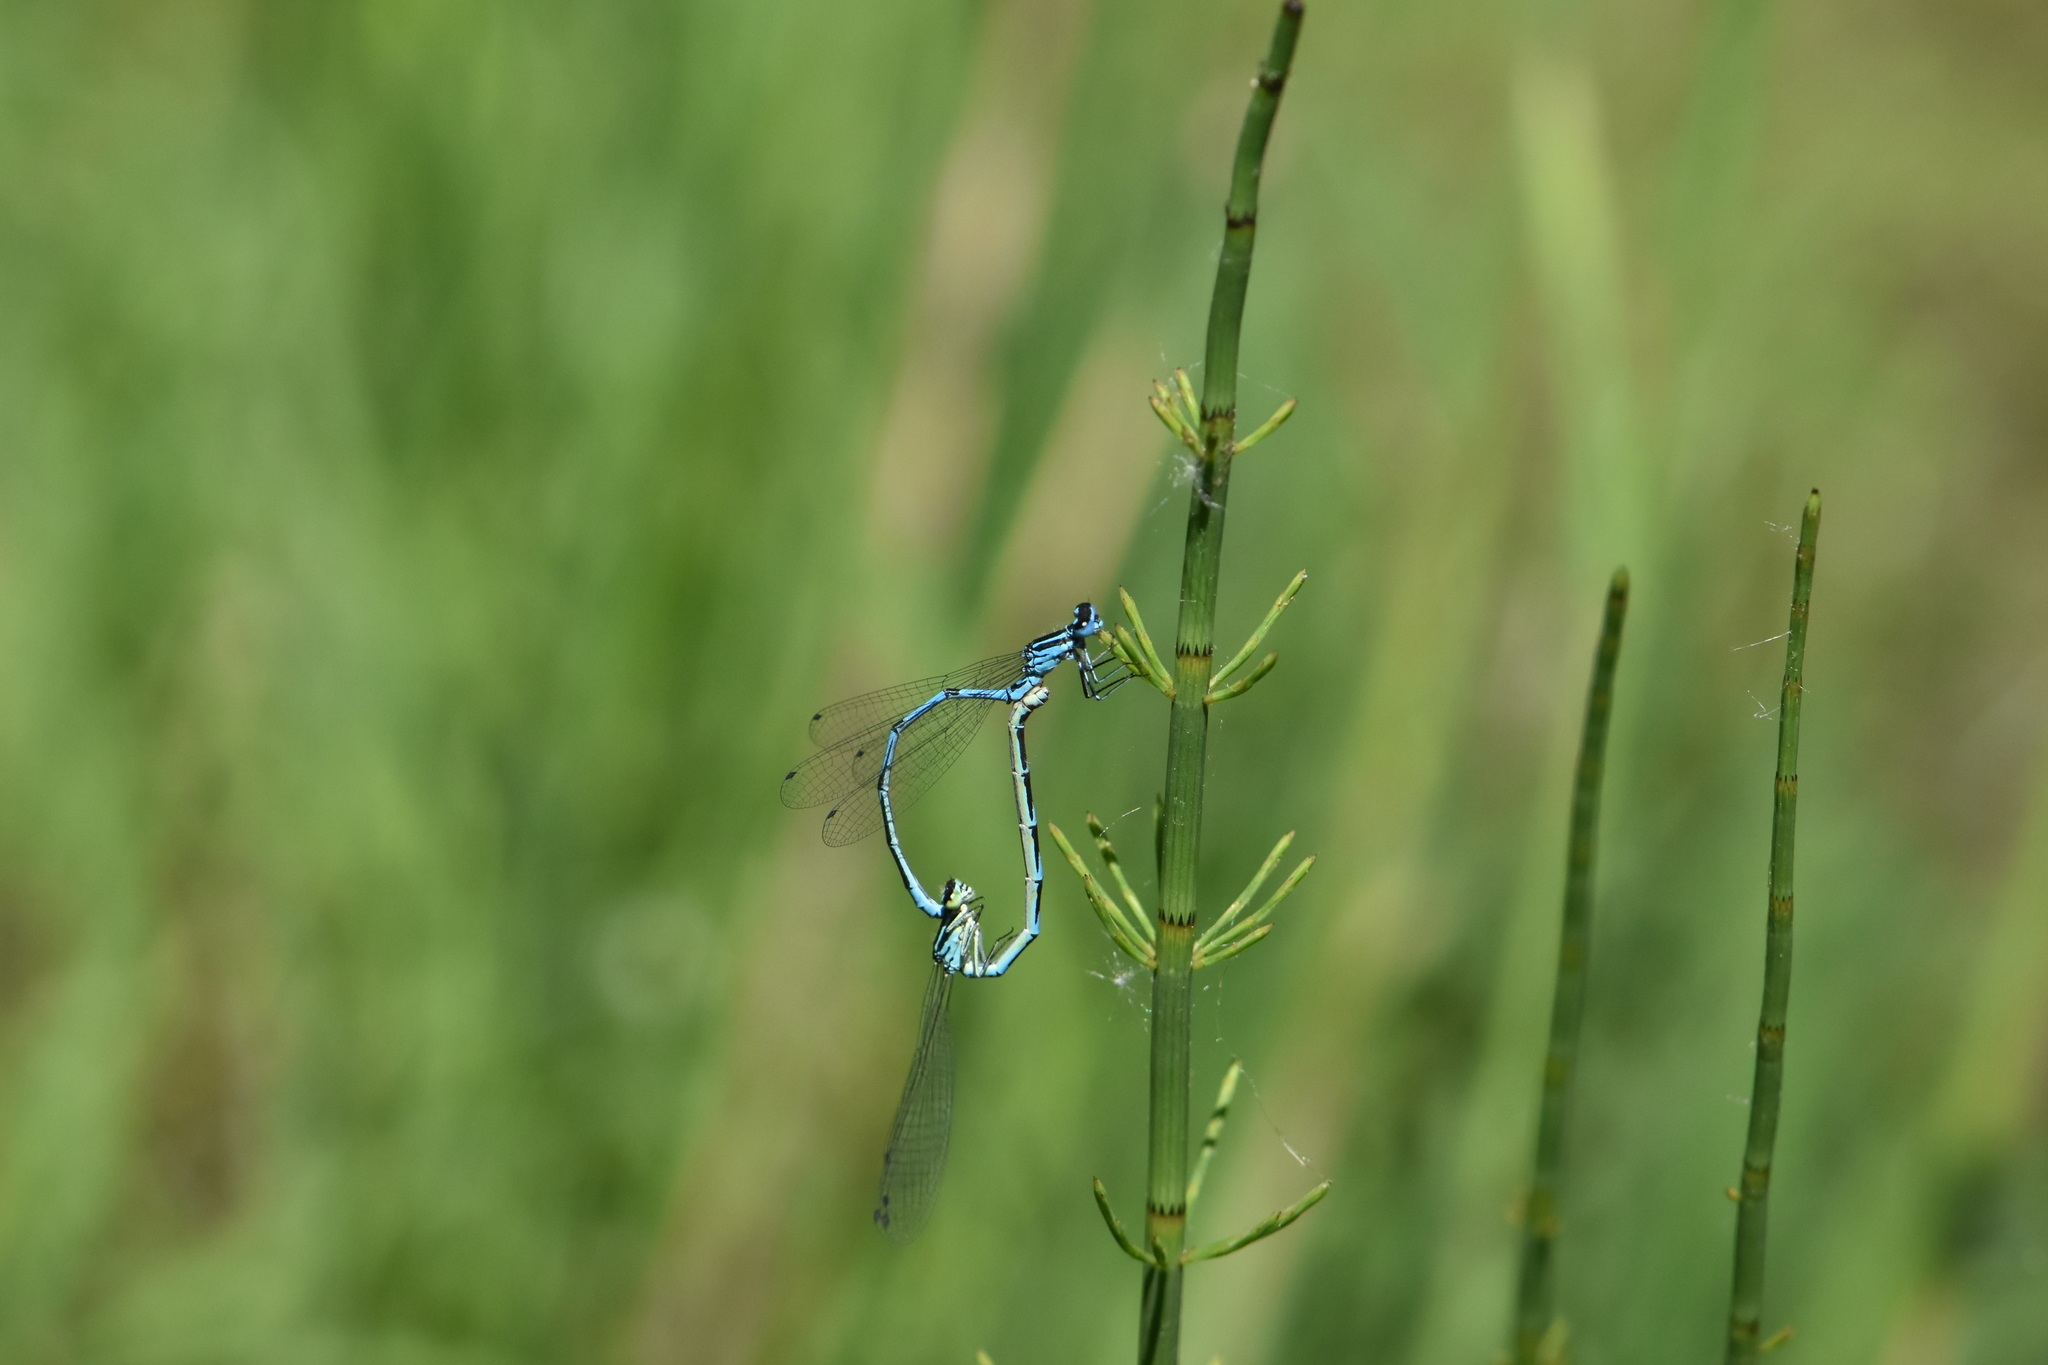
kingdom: Animalia
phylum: Arthropoda
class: Insecta
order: Odonata
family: Coenagrionidae
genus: Coenagrion
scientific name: Coenagrion puella
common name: Azure damselfly
